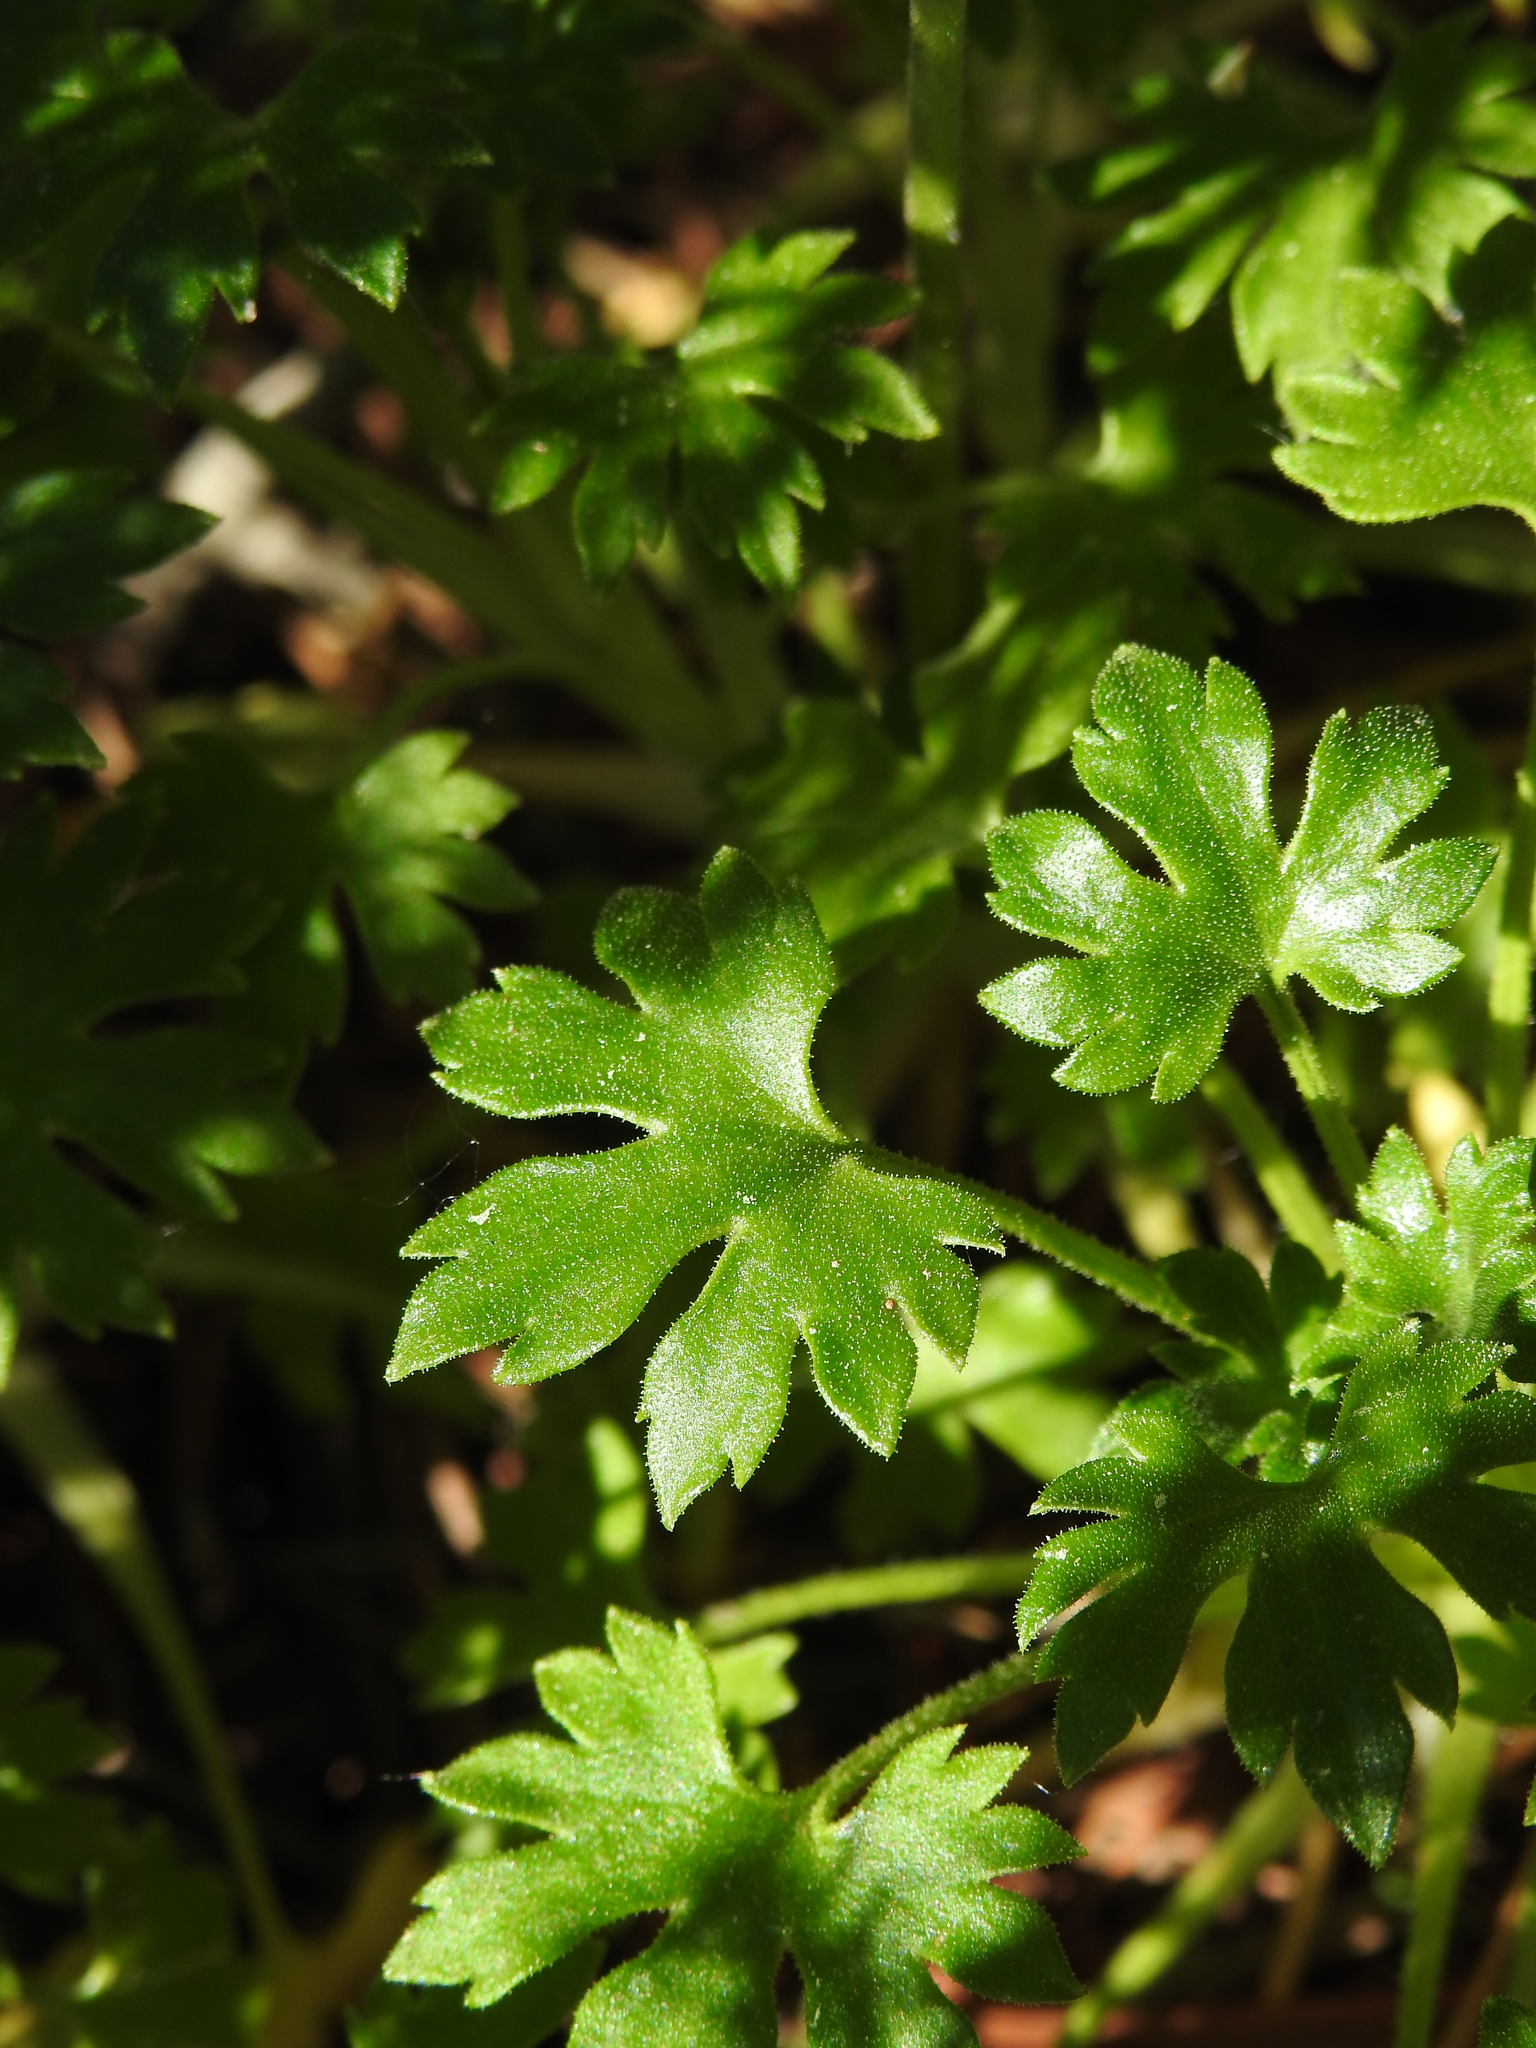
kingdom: Plantae
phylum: Tracheophyta
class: Magnoliopsida
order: Saxifragales
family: Saxifragaceae
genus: Saxifraga
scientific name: Saxifraga geranioides
